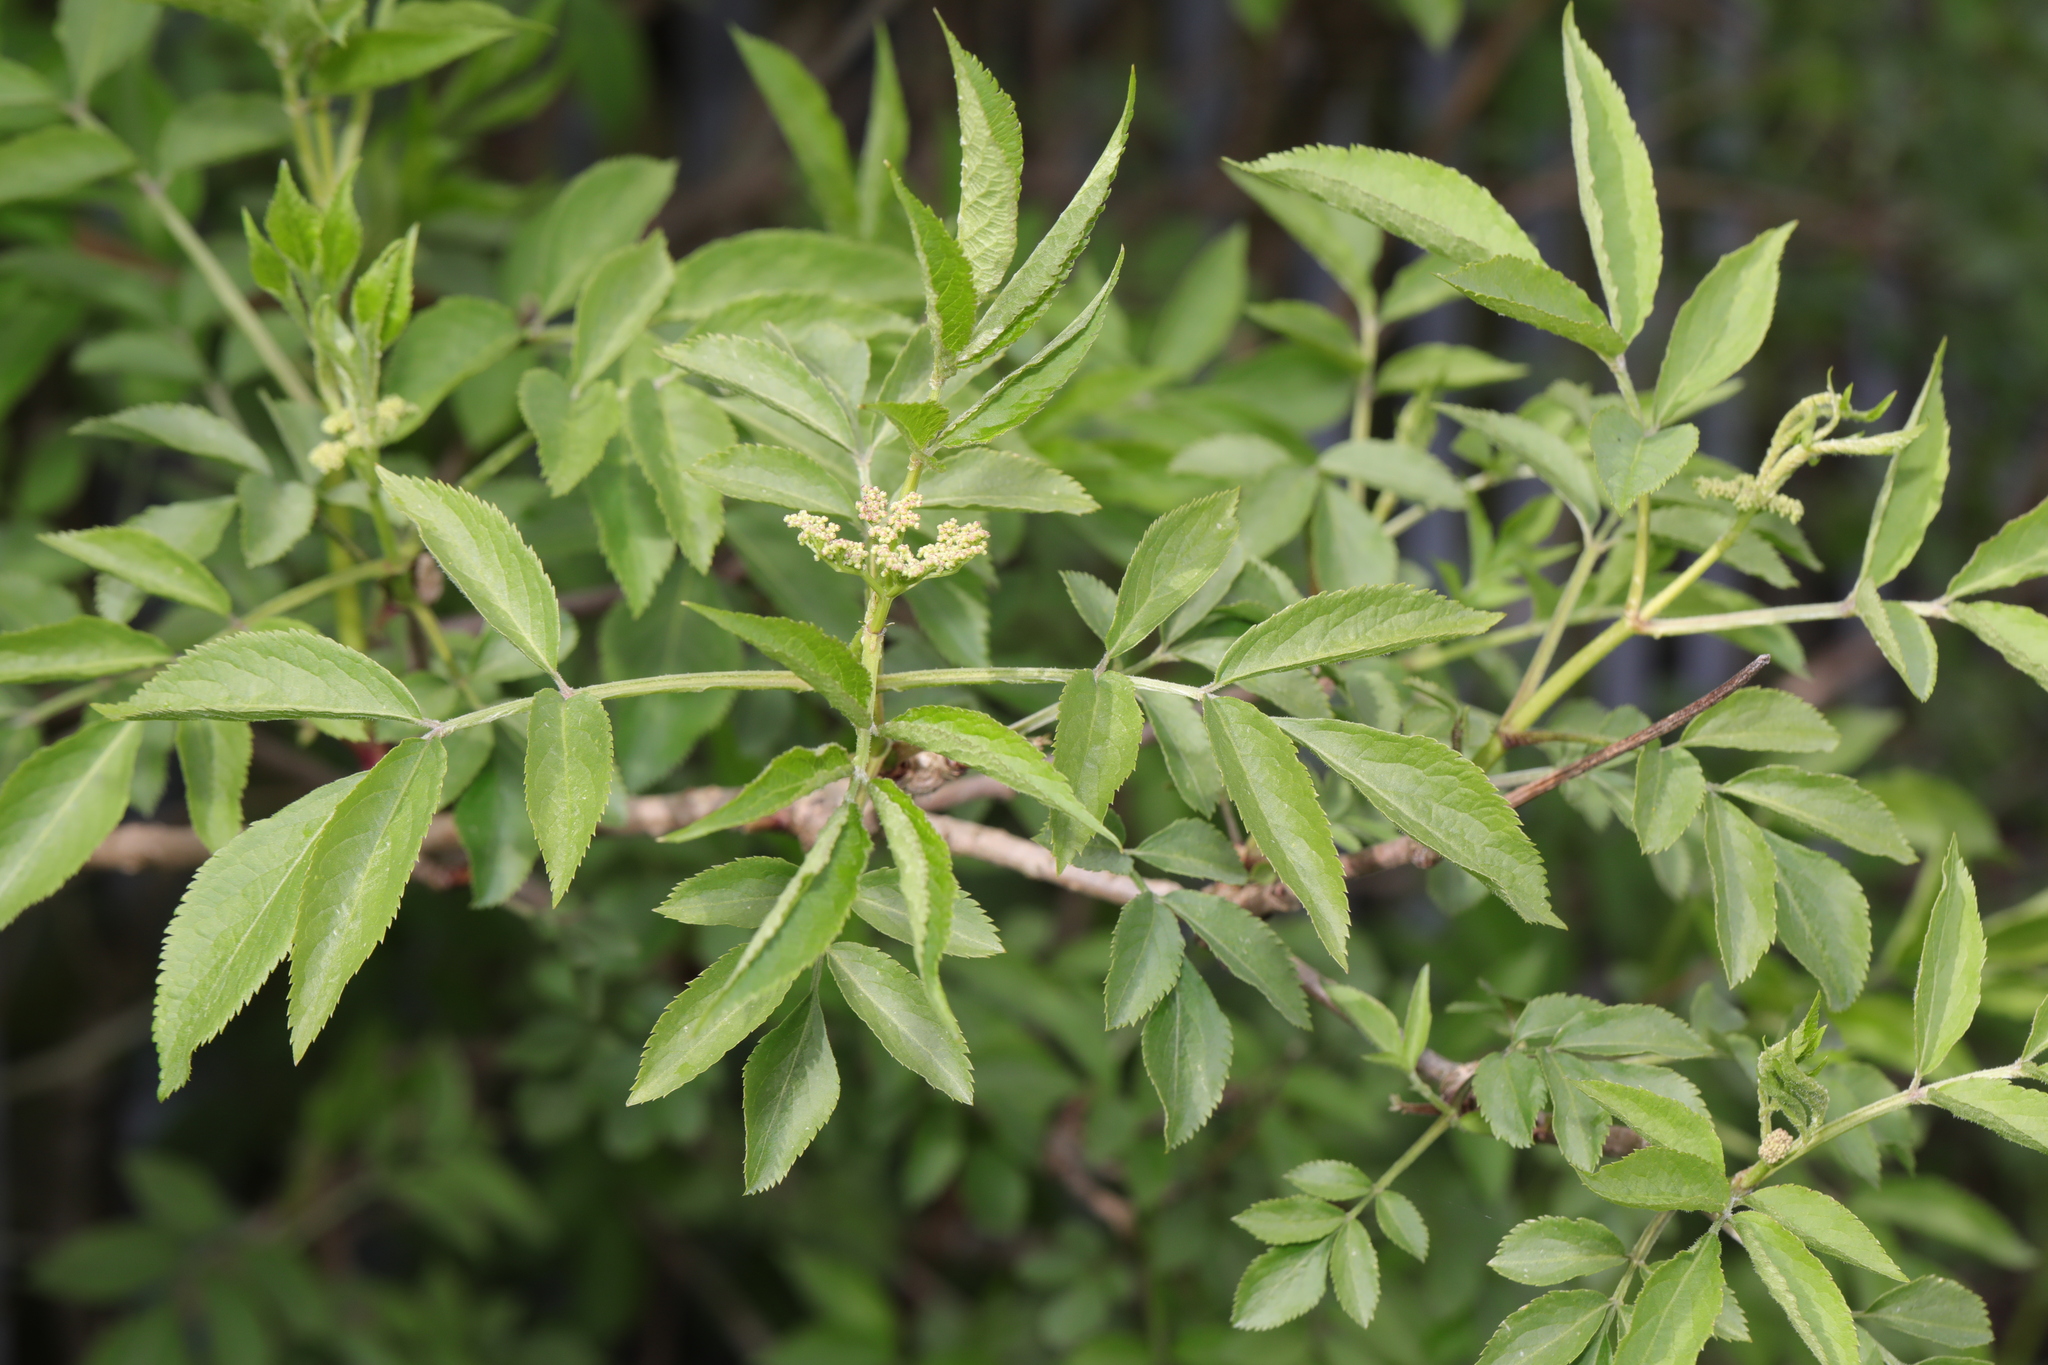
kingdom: Plantae
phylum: Tracheophyta
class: Magnoliopsida
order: Dipsacales
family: Viburnaceae
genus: Sambucus
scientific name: Sambucus nigra
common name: Elder
